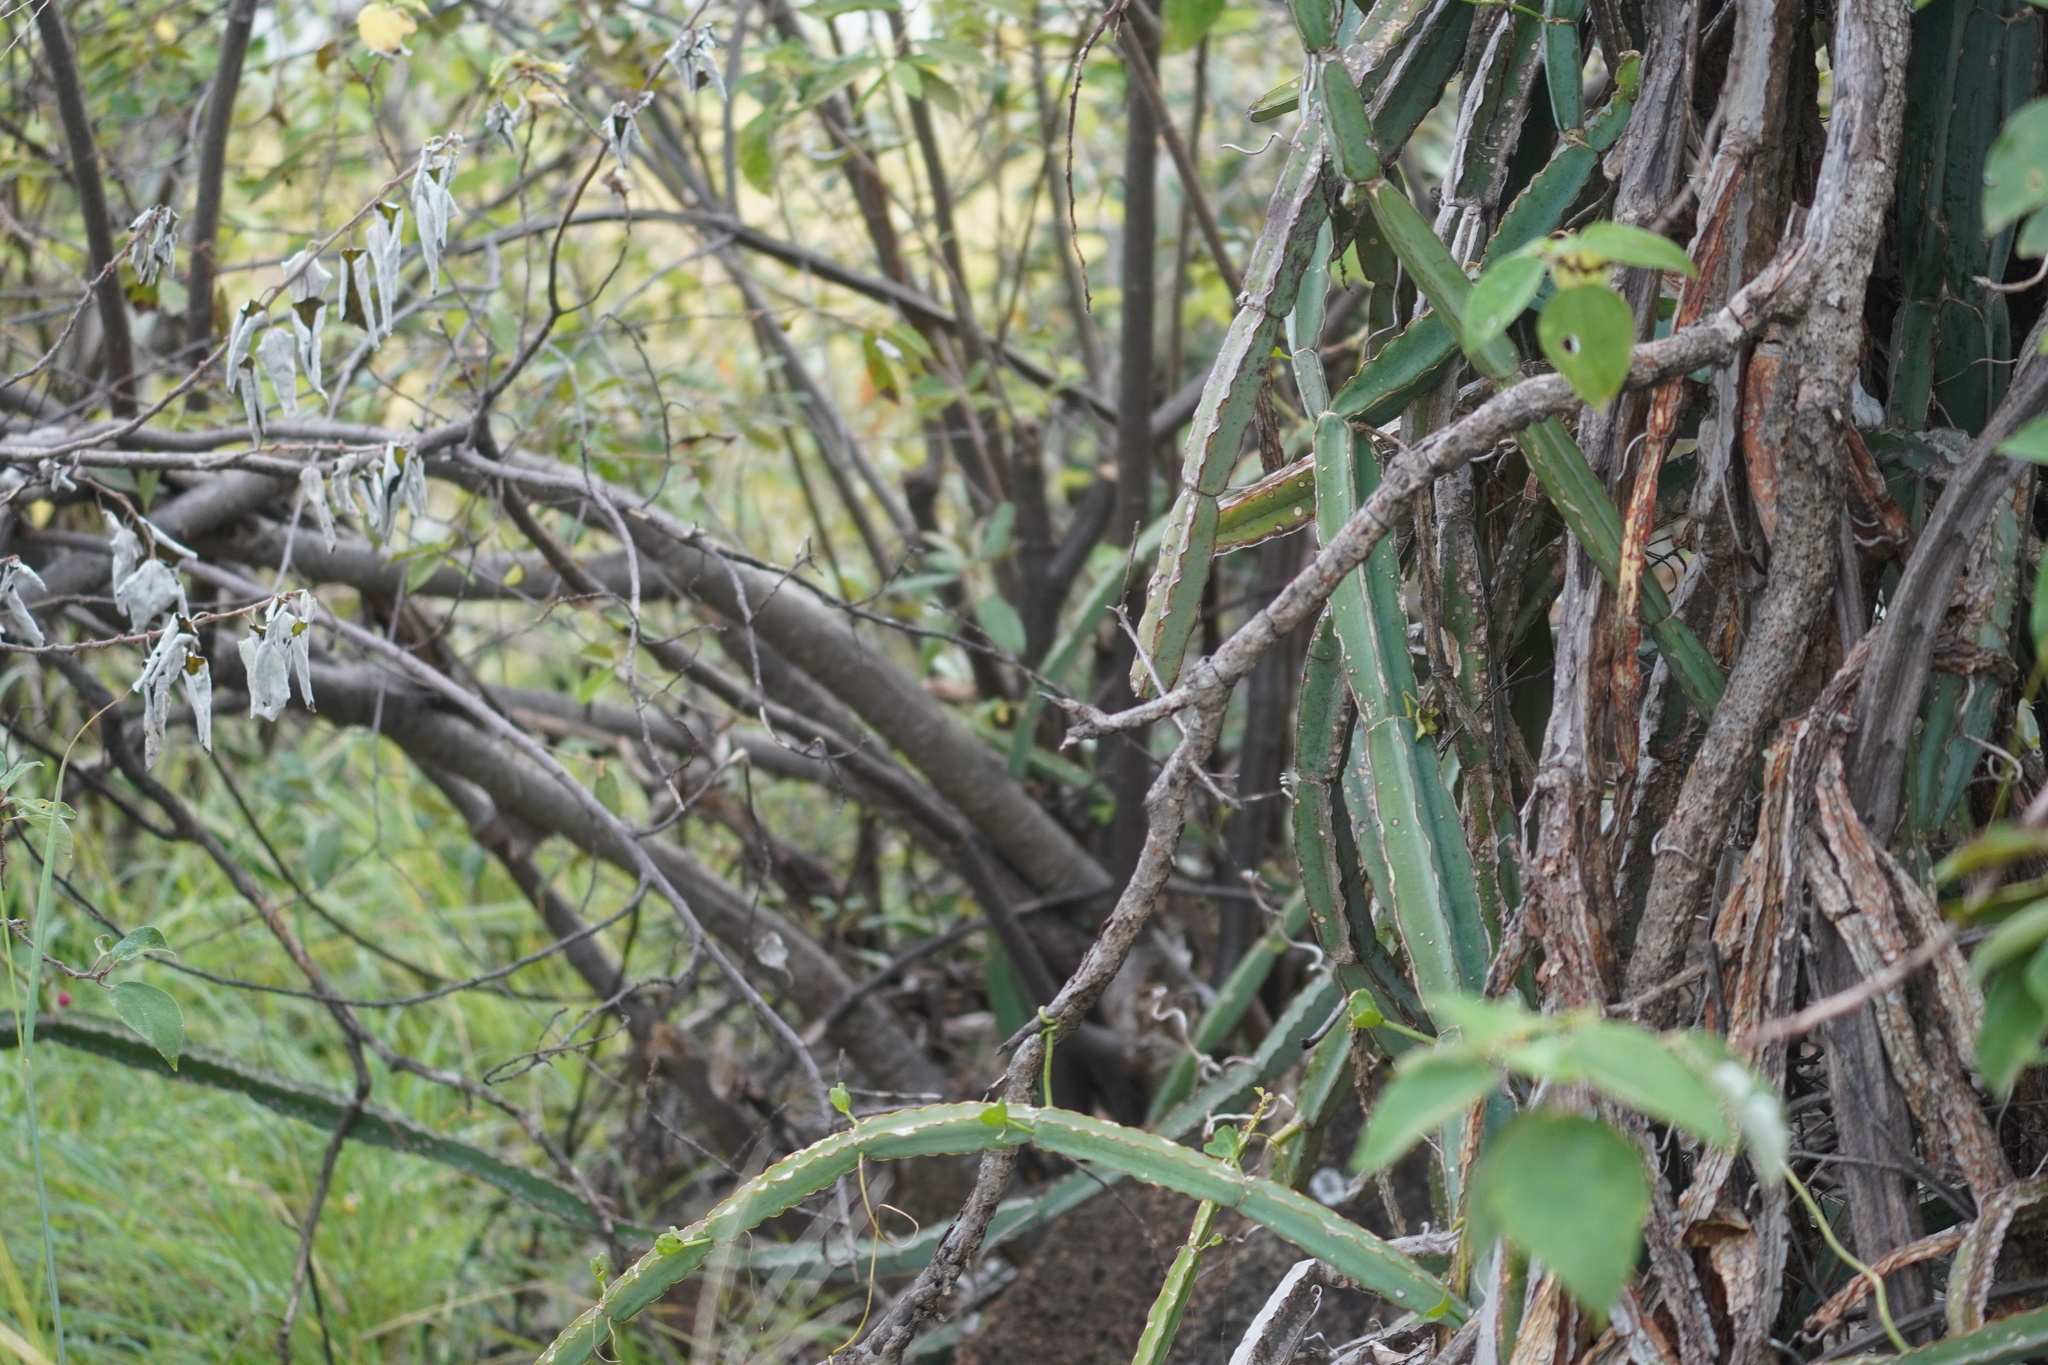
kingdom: Plantae
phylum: Tracheophyta
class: Magnoliopsida
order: Vitales
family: Vitaceae
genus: Cissus
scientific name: Cissus quadrangularis
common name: Veldt-grape
